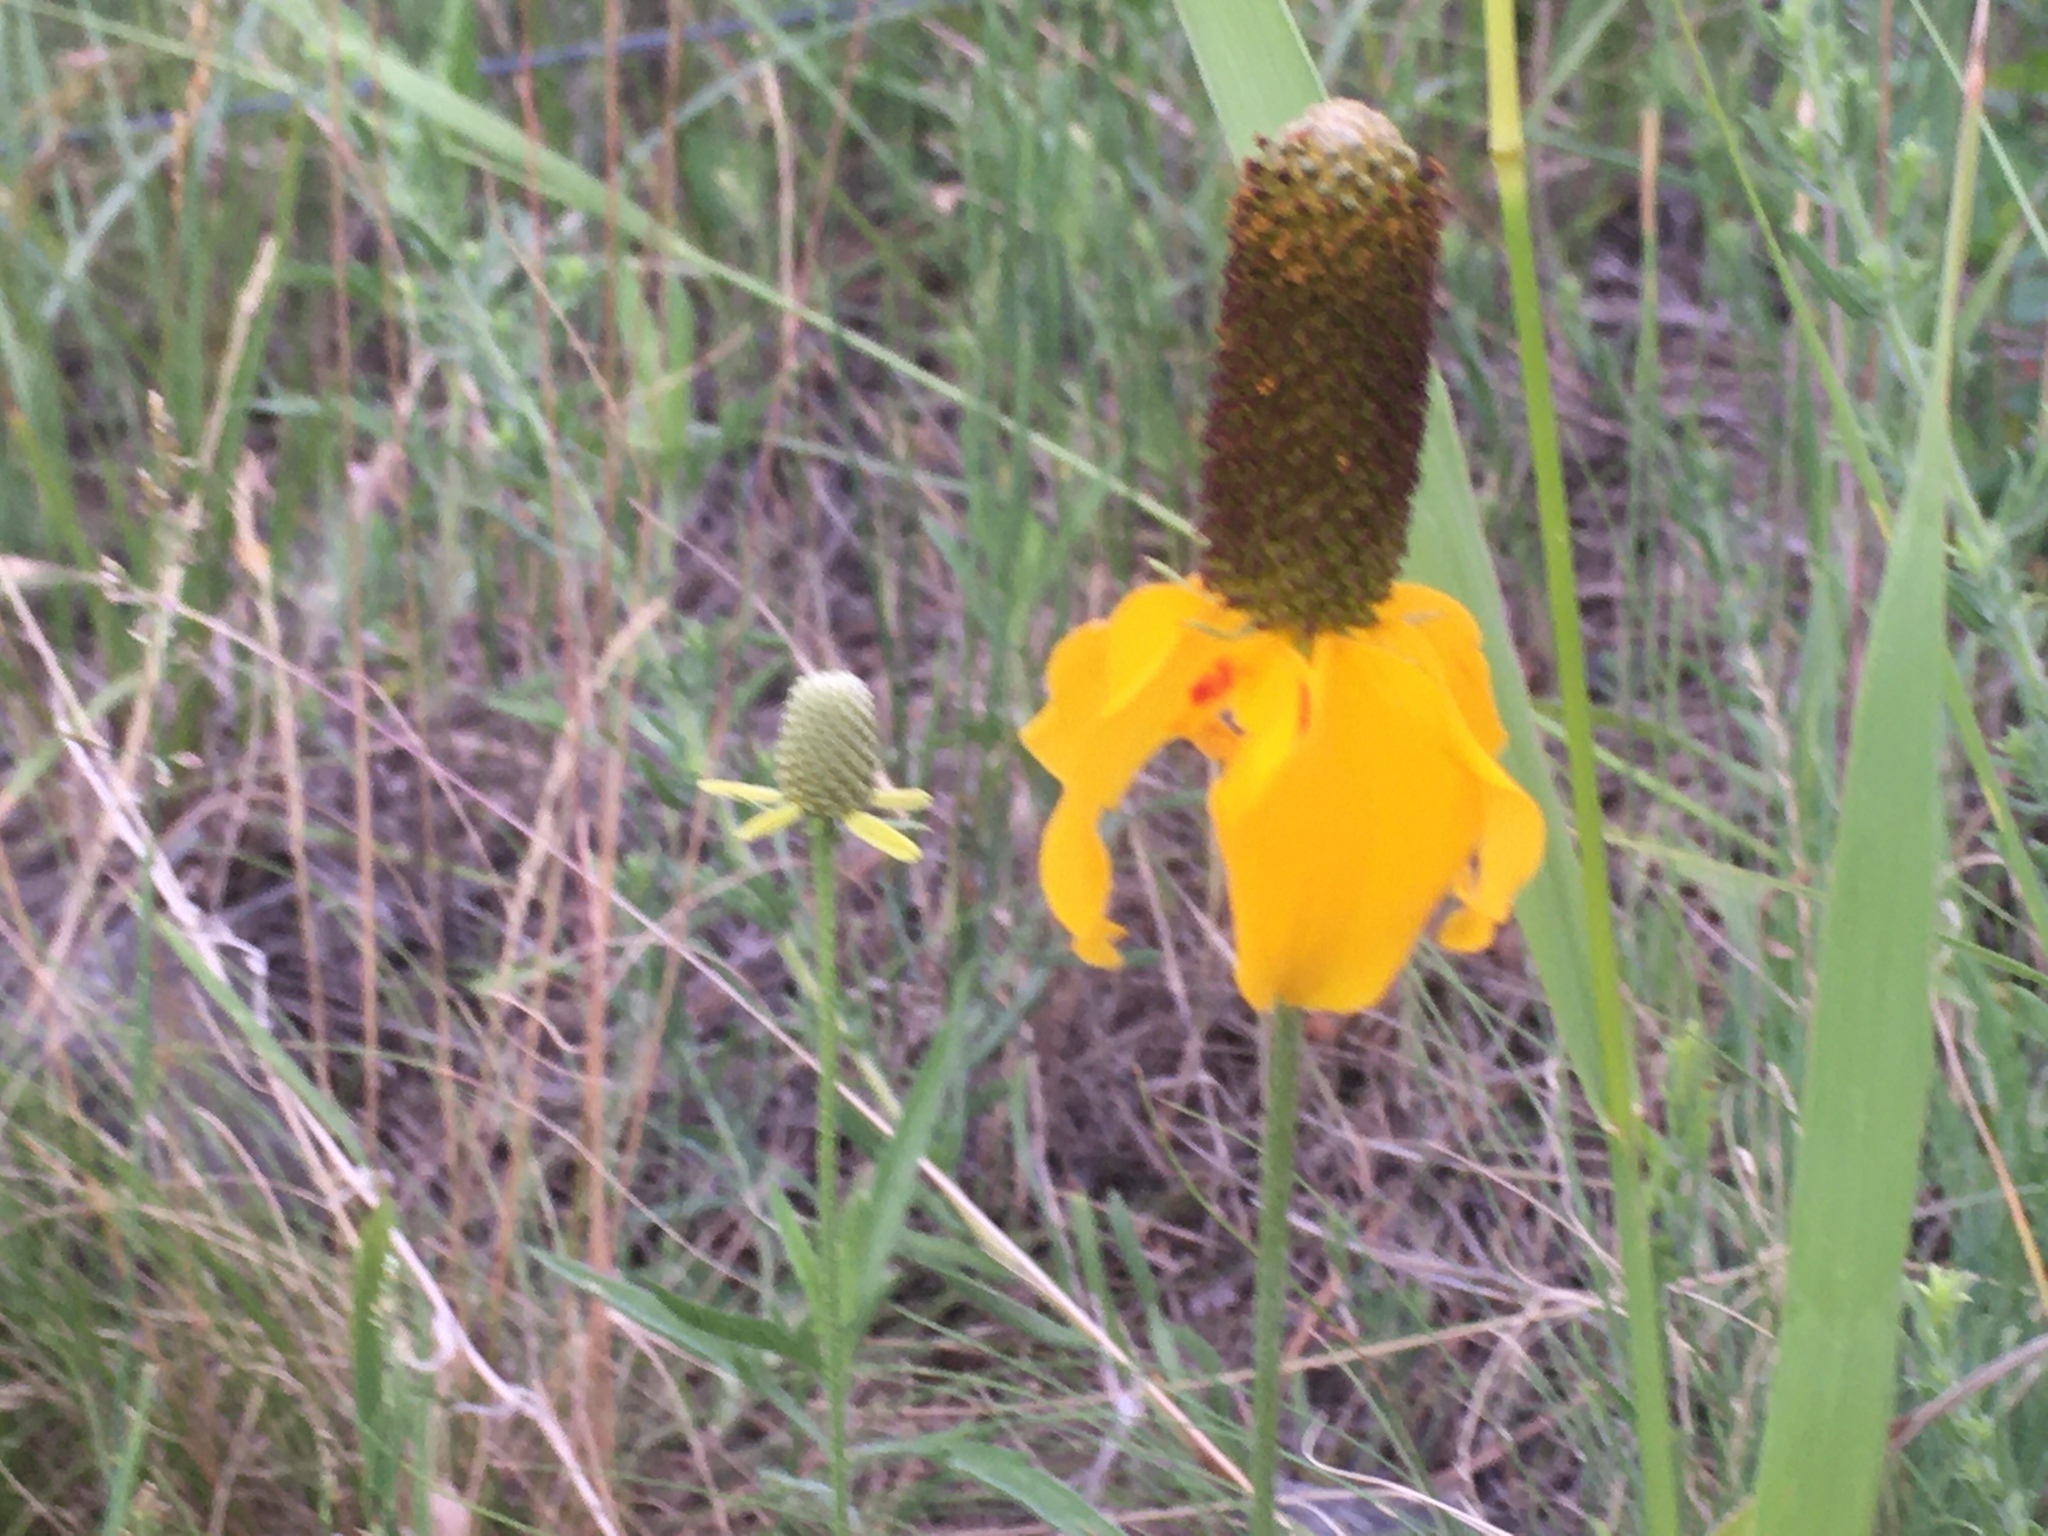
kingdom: Plantae
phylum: Tracheophyta
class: Magnoliopsida
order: Asterales
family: Asteraceae
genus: Ratibida
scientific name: Ratibida columnifera
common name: Prairie coneflower
